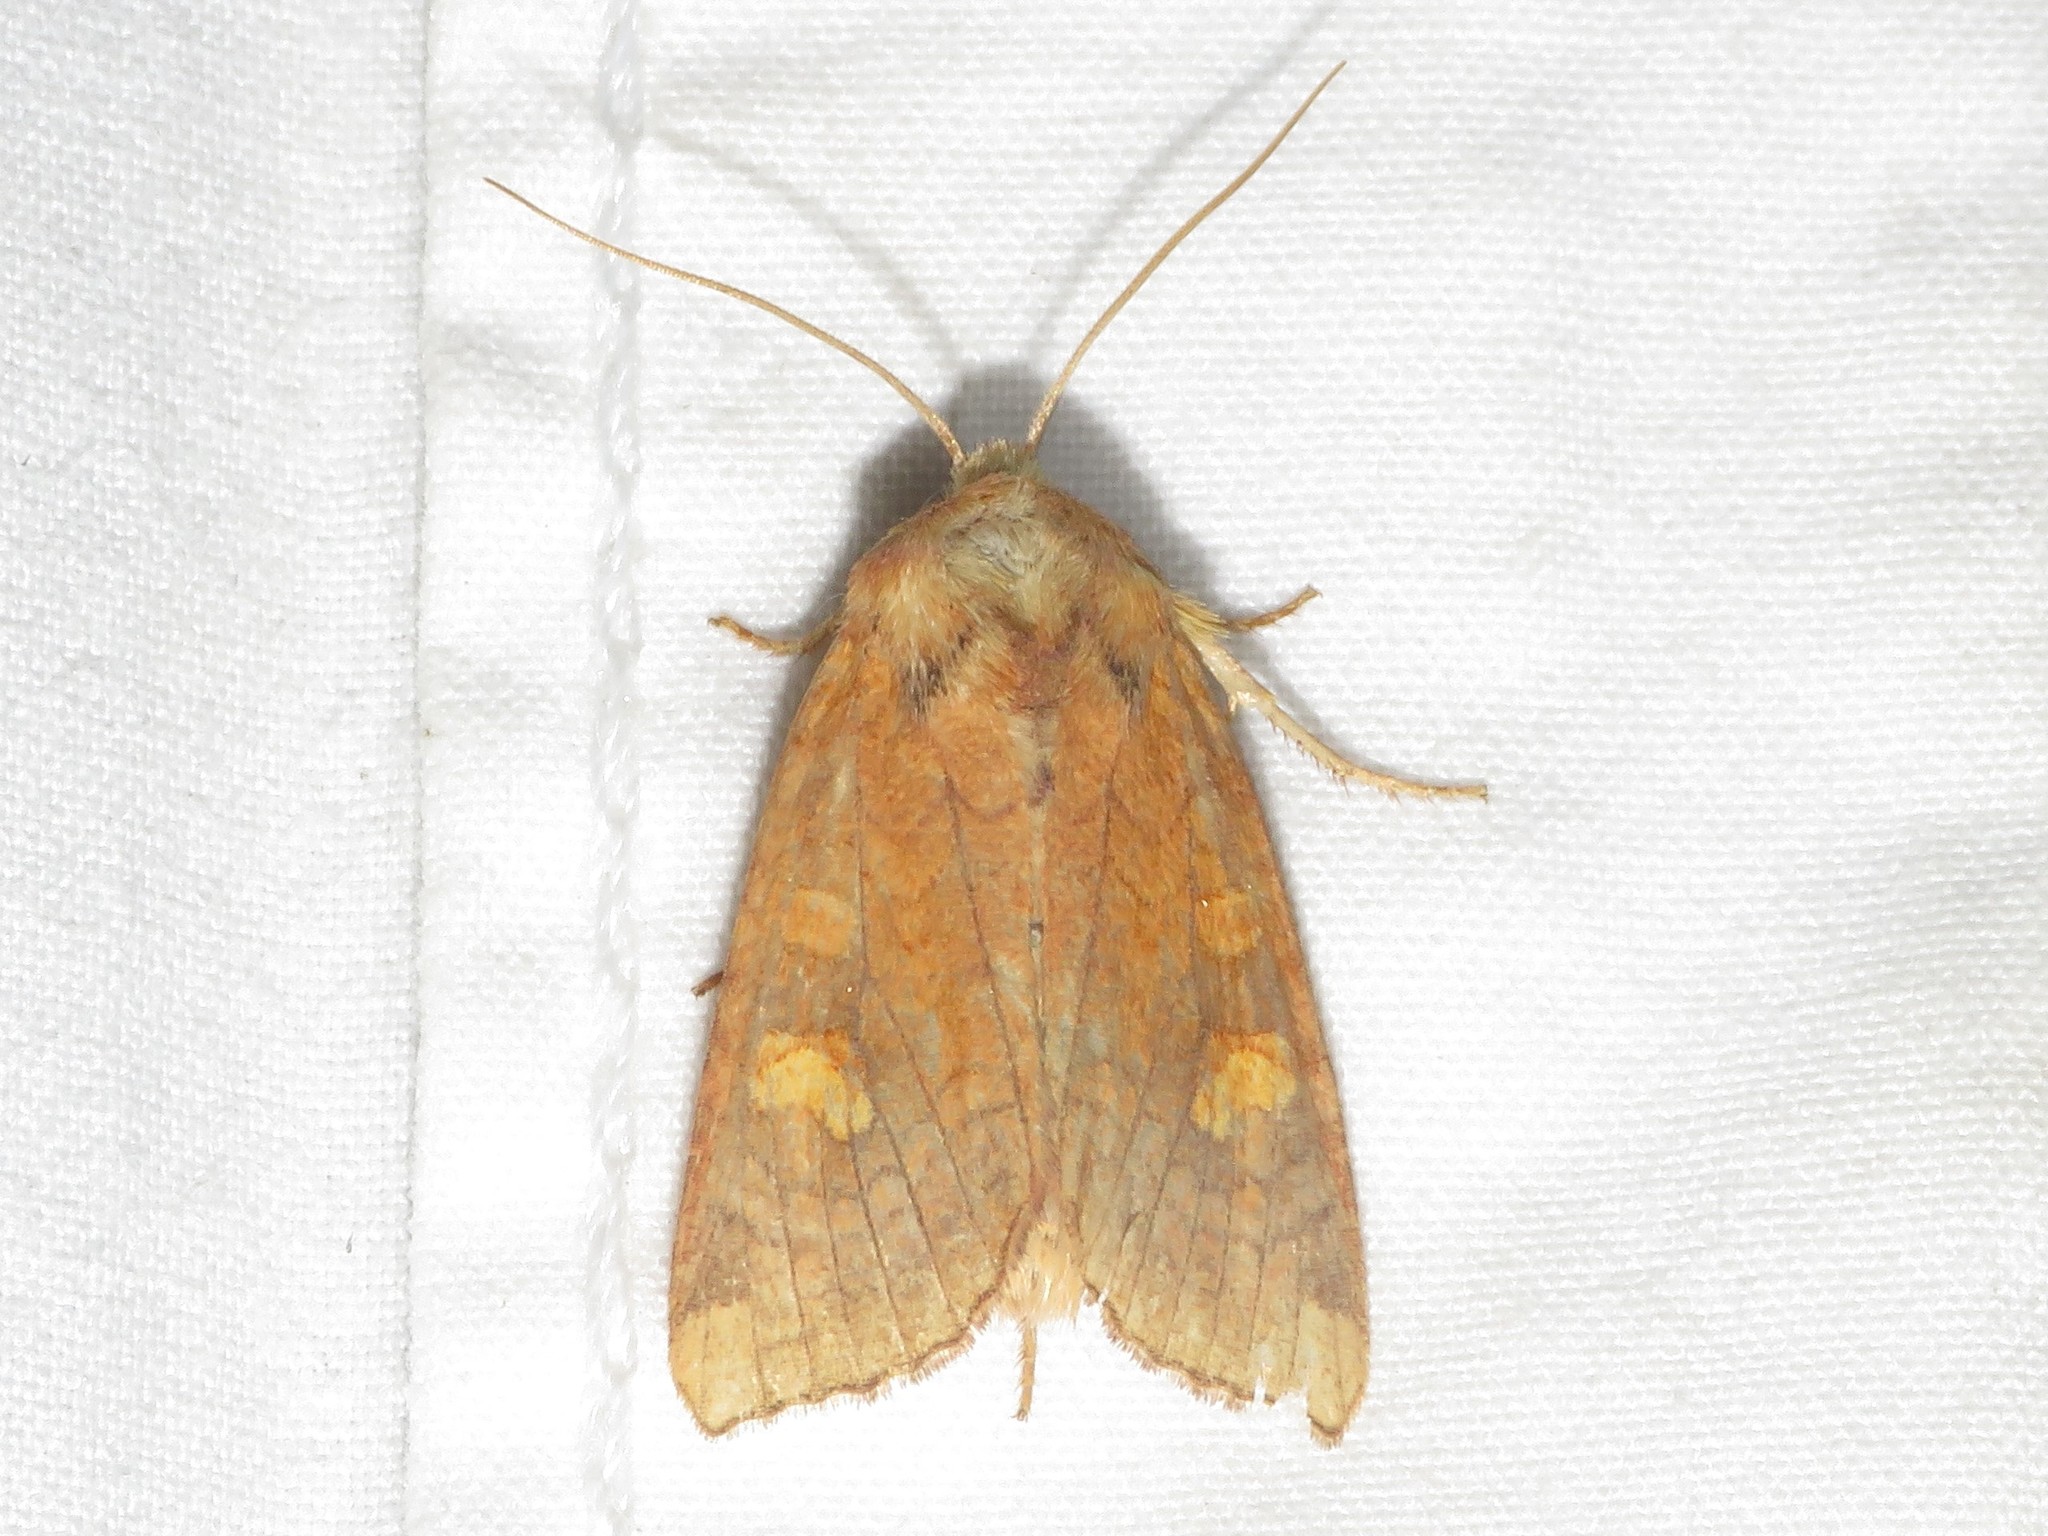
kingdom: Animalia
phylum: Arthropoda
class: Insecta
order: Lepidoptera
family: Noctuidae
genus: Amphipoea
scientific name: Amphipoea americana
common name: American ear moth
